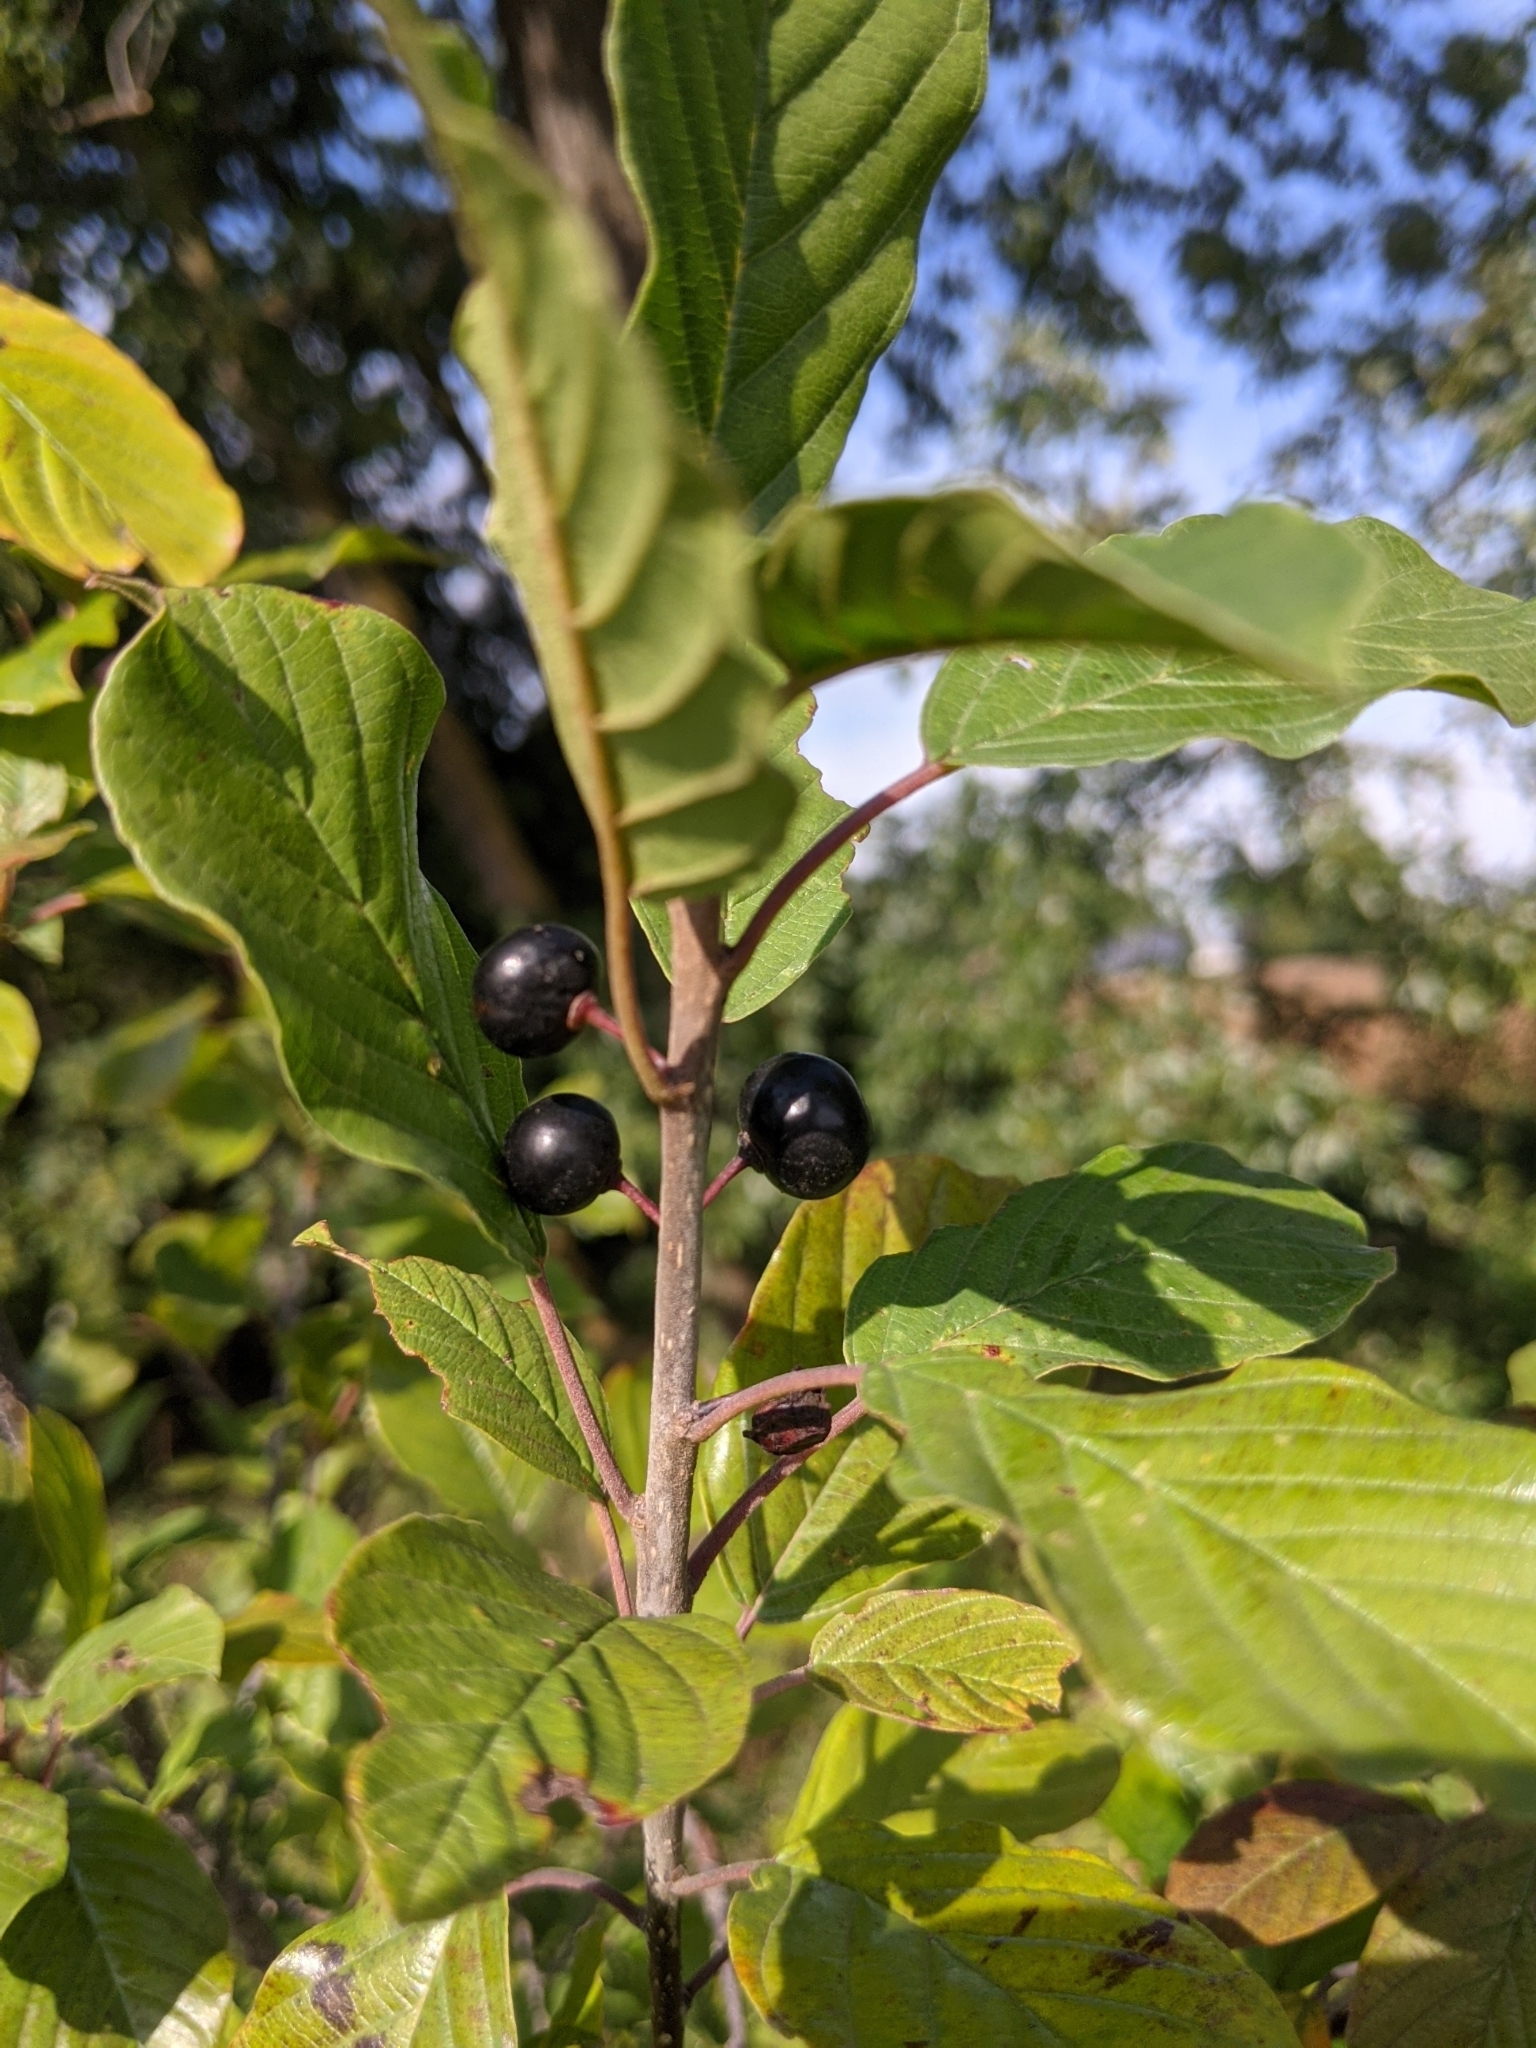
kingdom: Plantae
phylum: Tracheophyta
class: Magnoliopsida
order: Rosales
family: Rhamnaceae
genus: Frangula
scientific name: Frangula alnus
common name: Alder buckthorn
